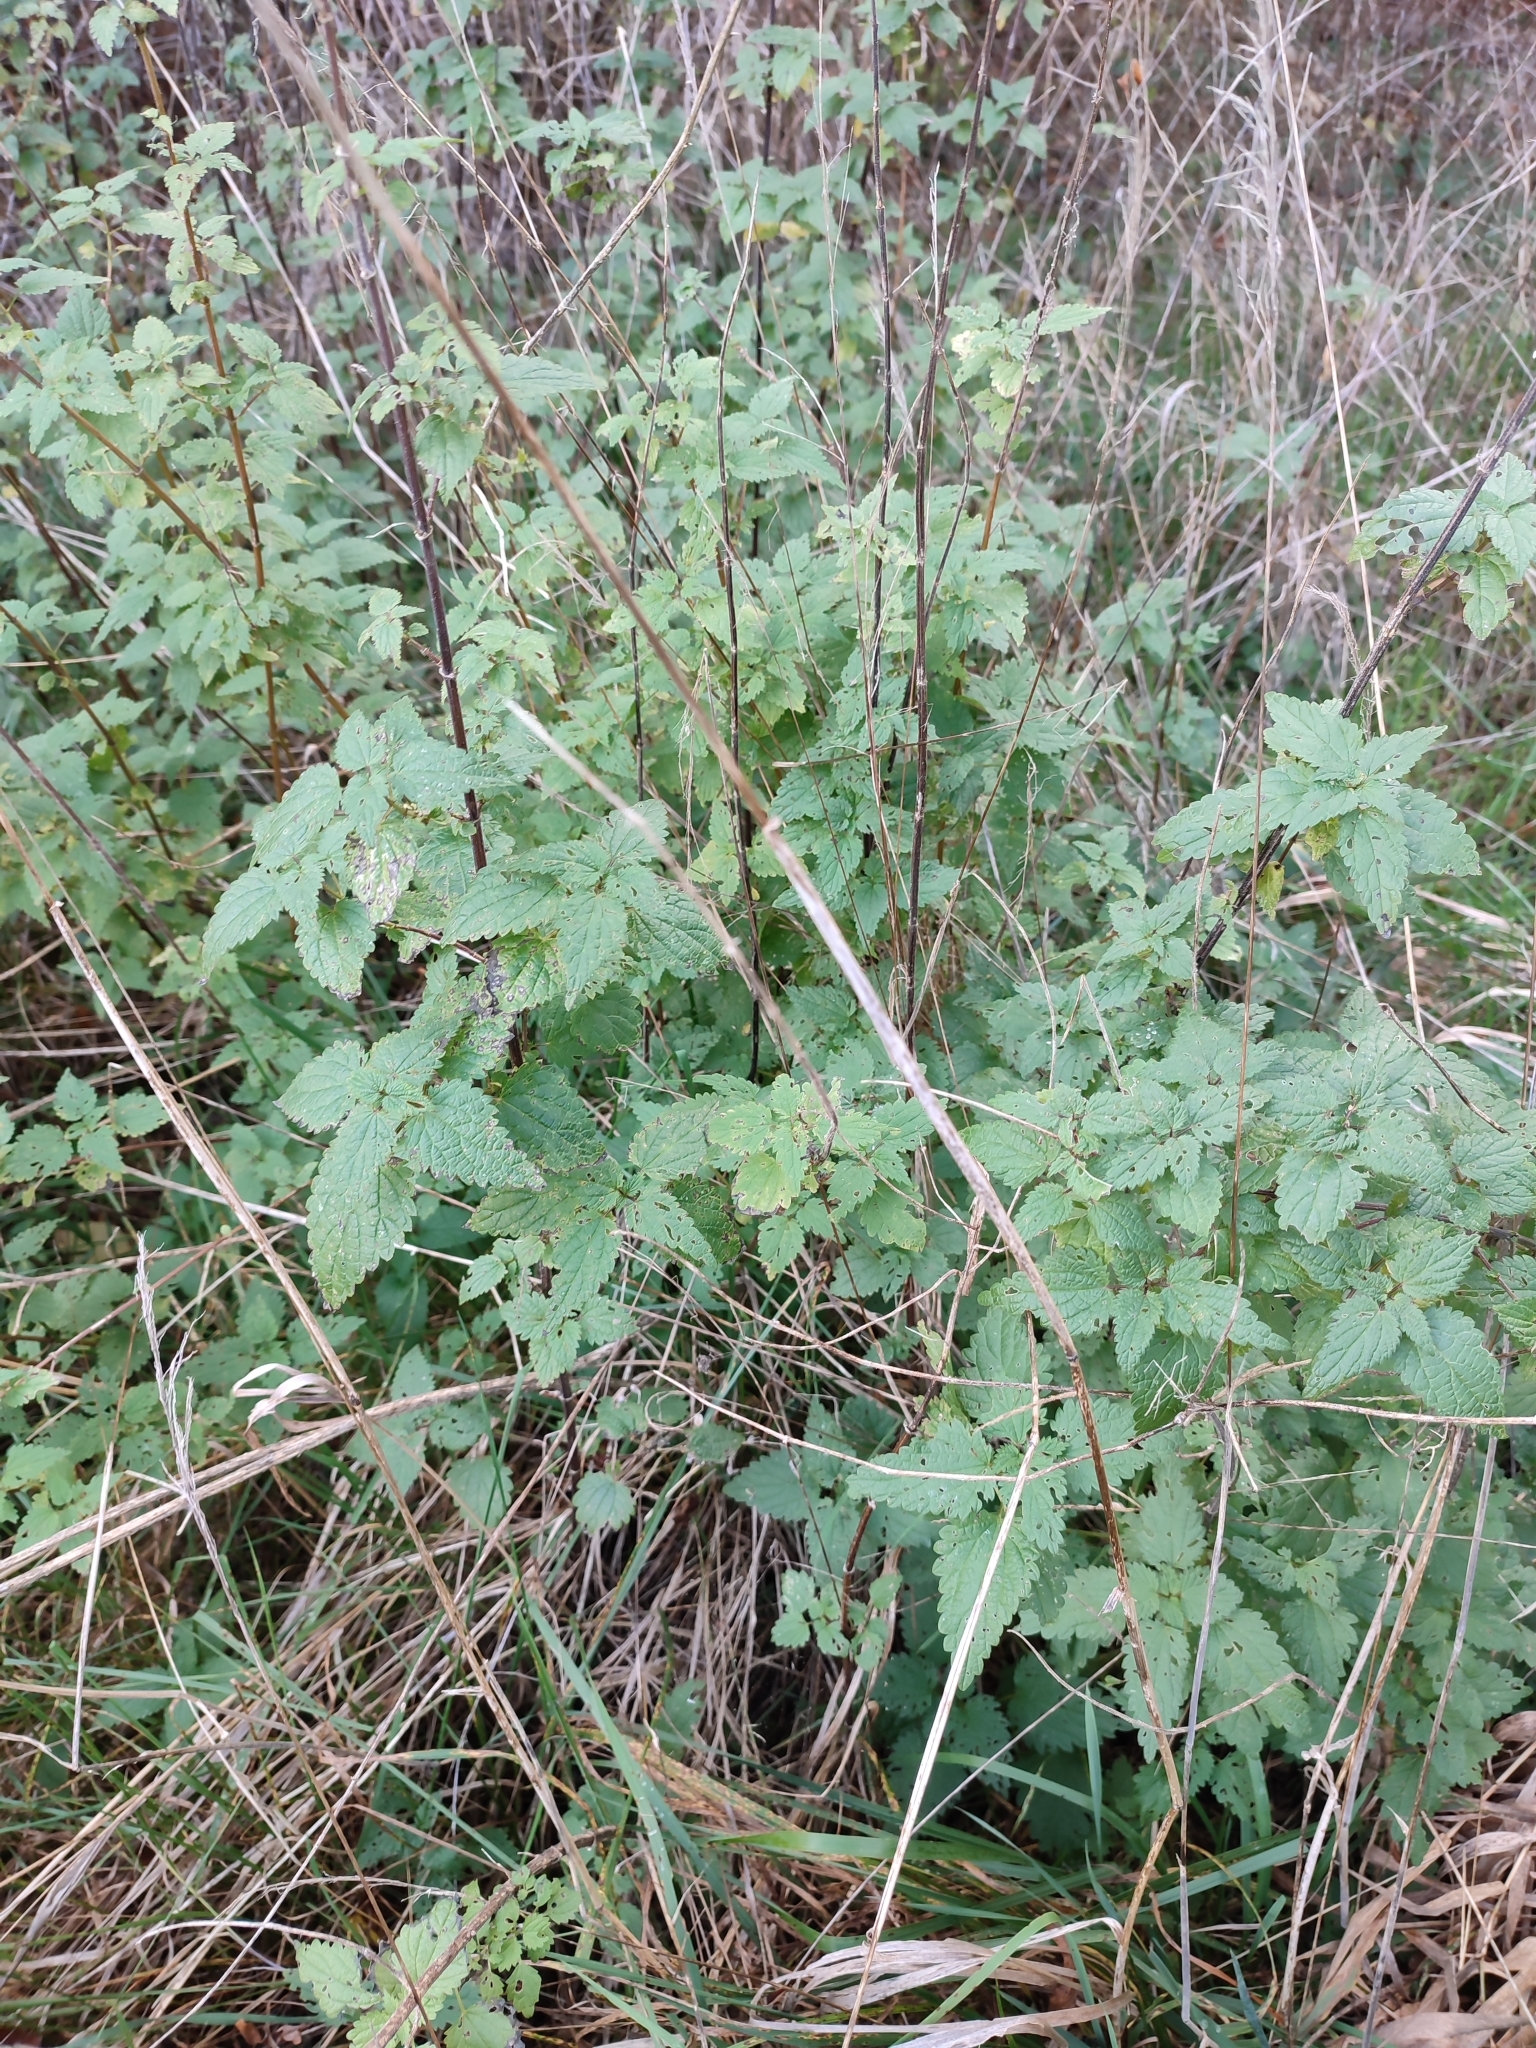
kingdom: Plantae
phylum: Tracheophyta
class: Magnoliopsida
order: Rosales
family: Urticaceae
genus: Urtica
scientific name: Urtica dioica
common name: Common nettle
